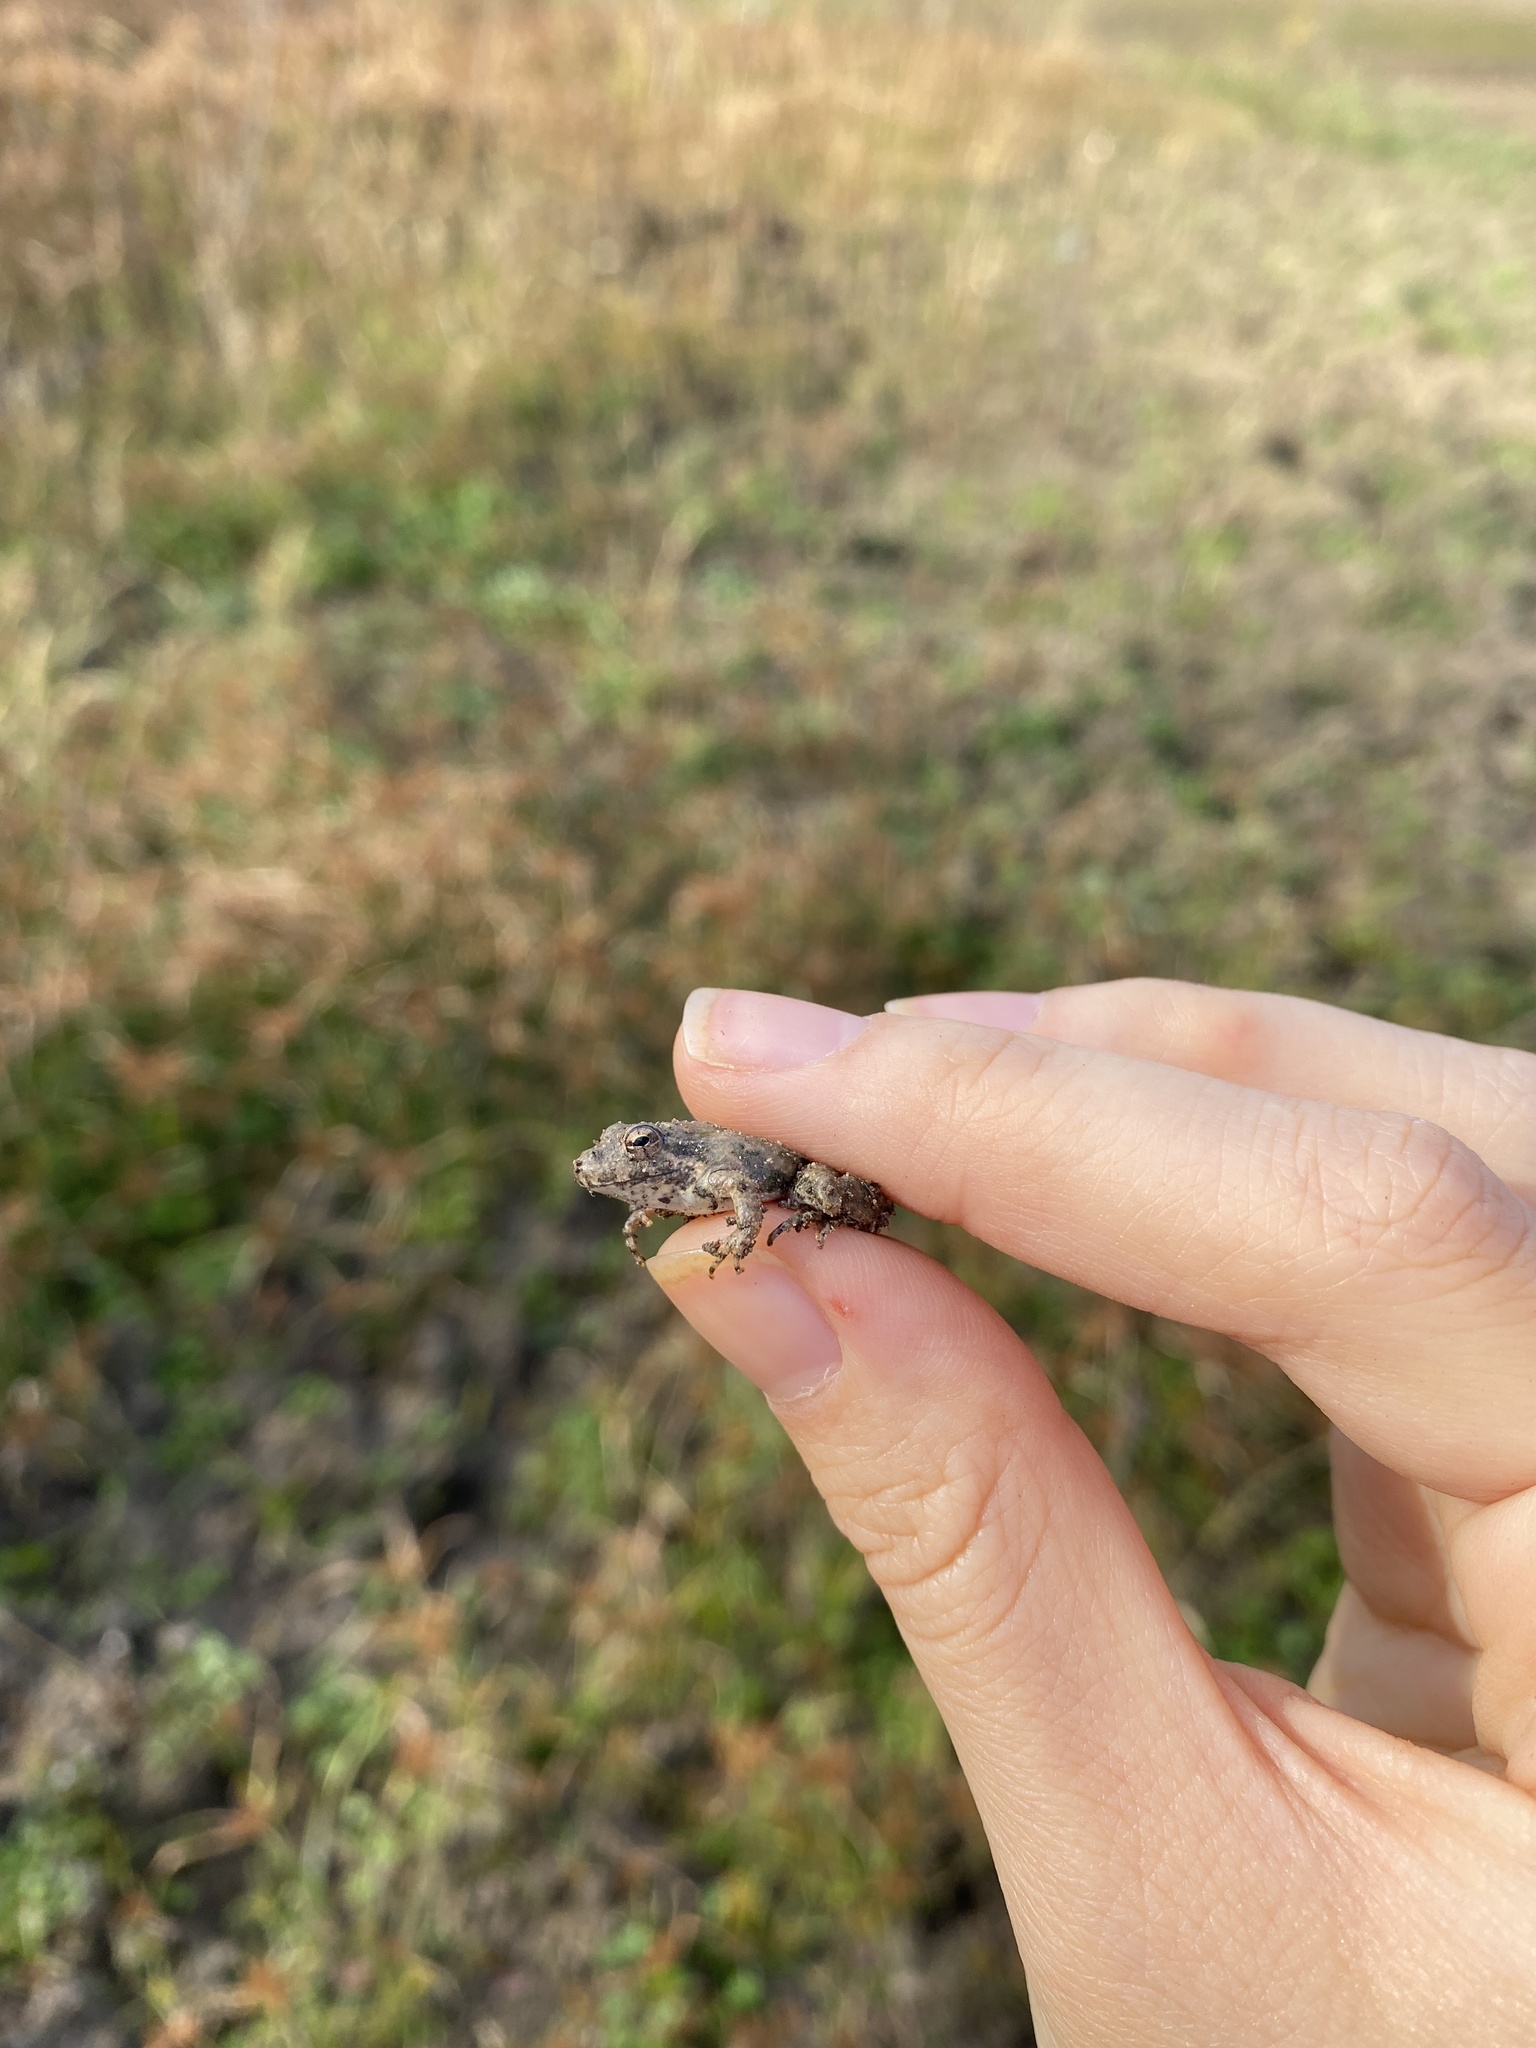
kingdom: Animalia
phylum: Chordata
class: Amphibia
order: Anura
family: Hylidae
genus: Acris
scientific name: Acris blanchardi
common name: Blanchard's cricket frog
